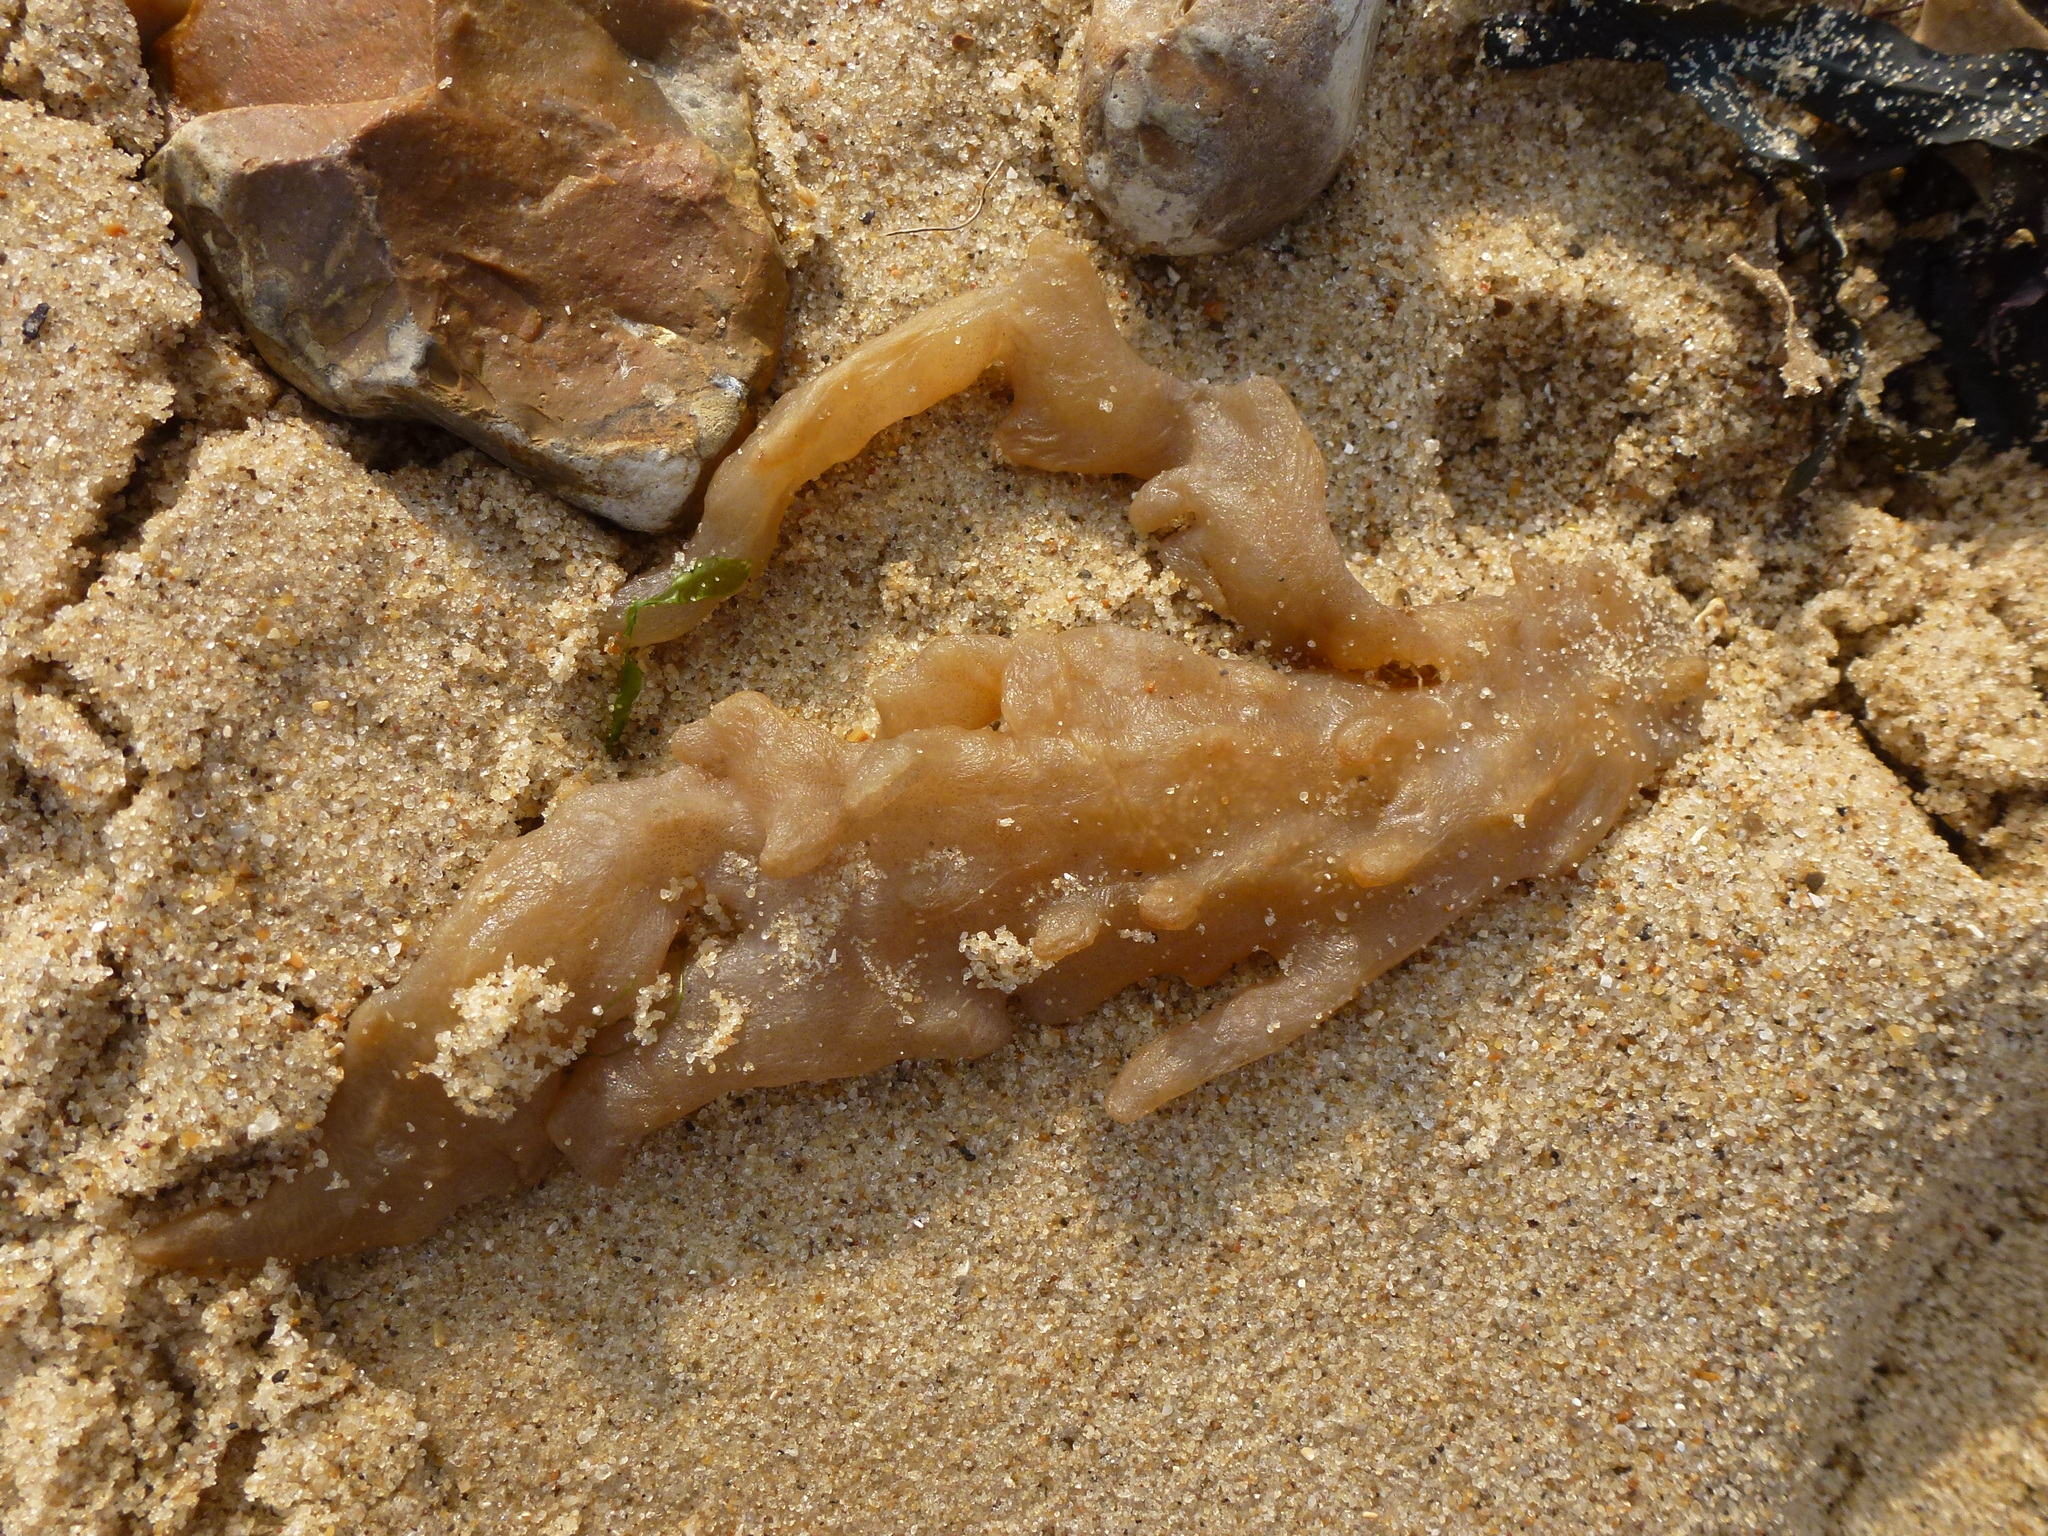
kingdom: Animalia
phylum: Bryozoa
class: Gymnolaemata
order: Ctenostomatida
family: Alcyonidiidae
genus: Alcyonidium
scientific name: Alcyonidium diaphanum
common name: Sea chervil
